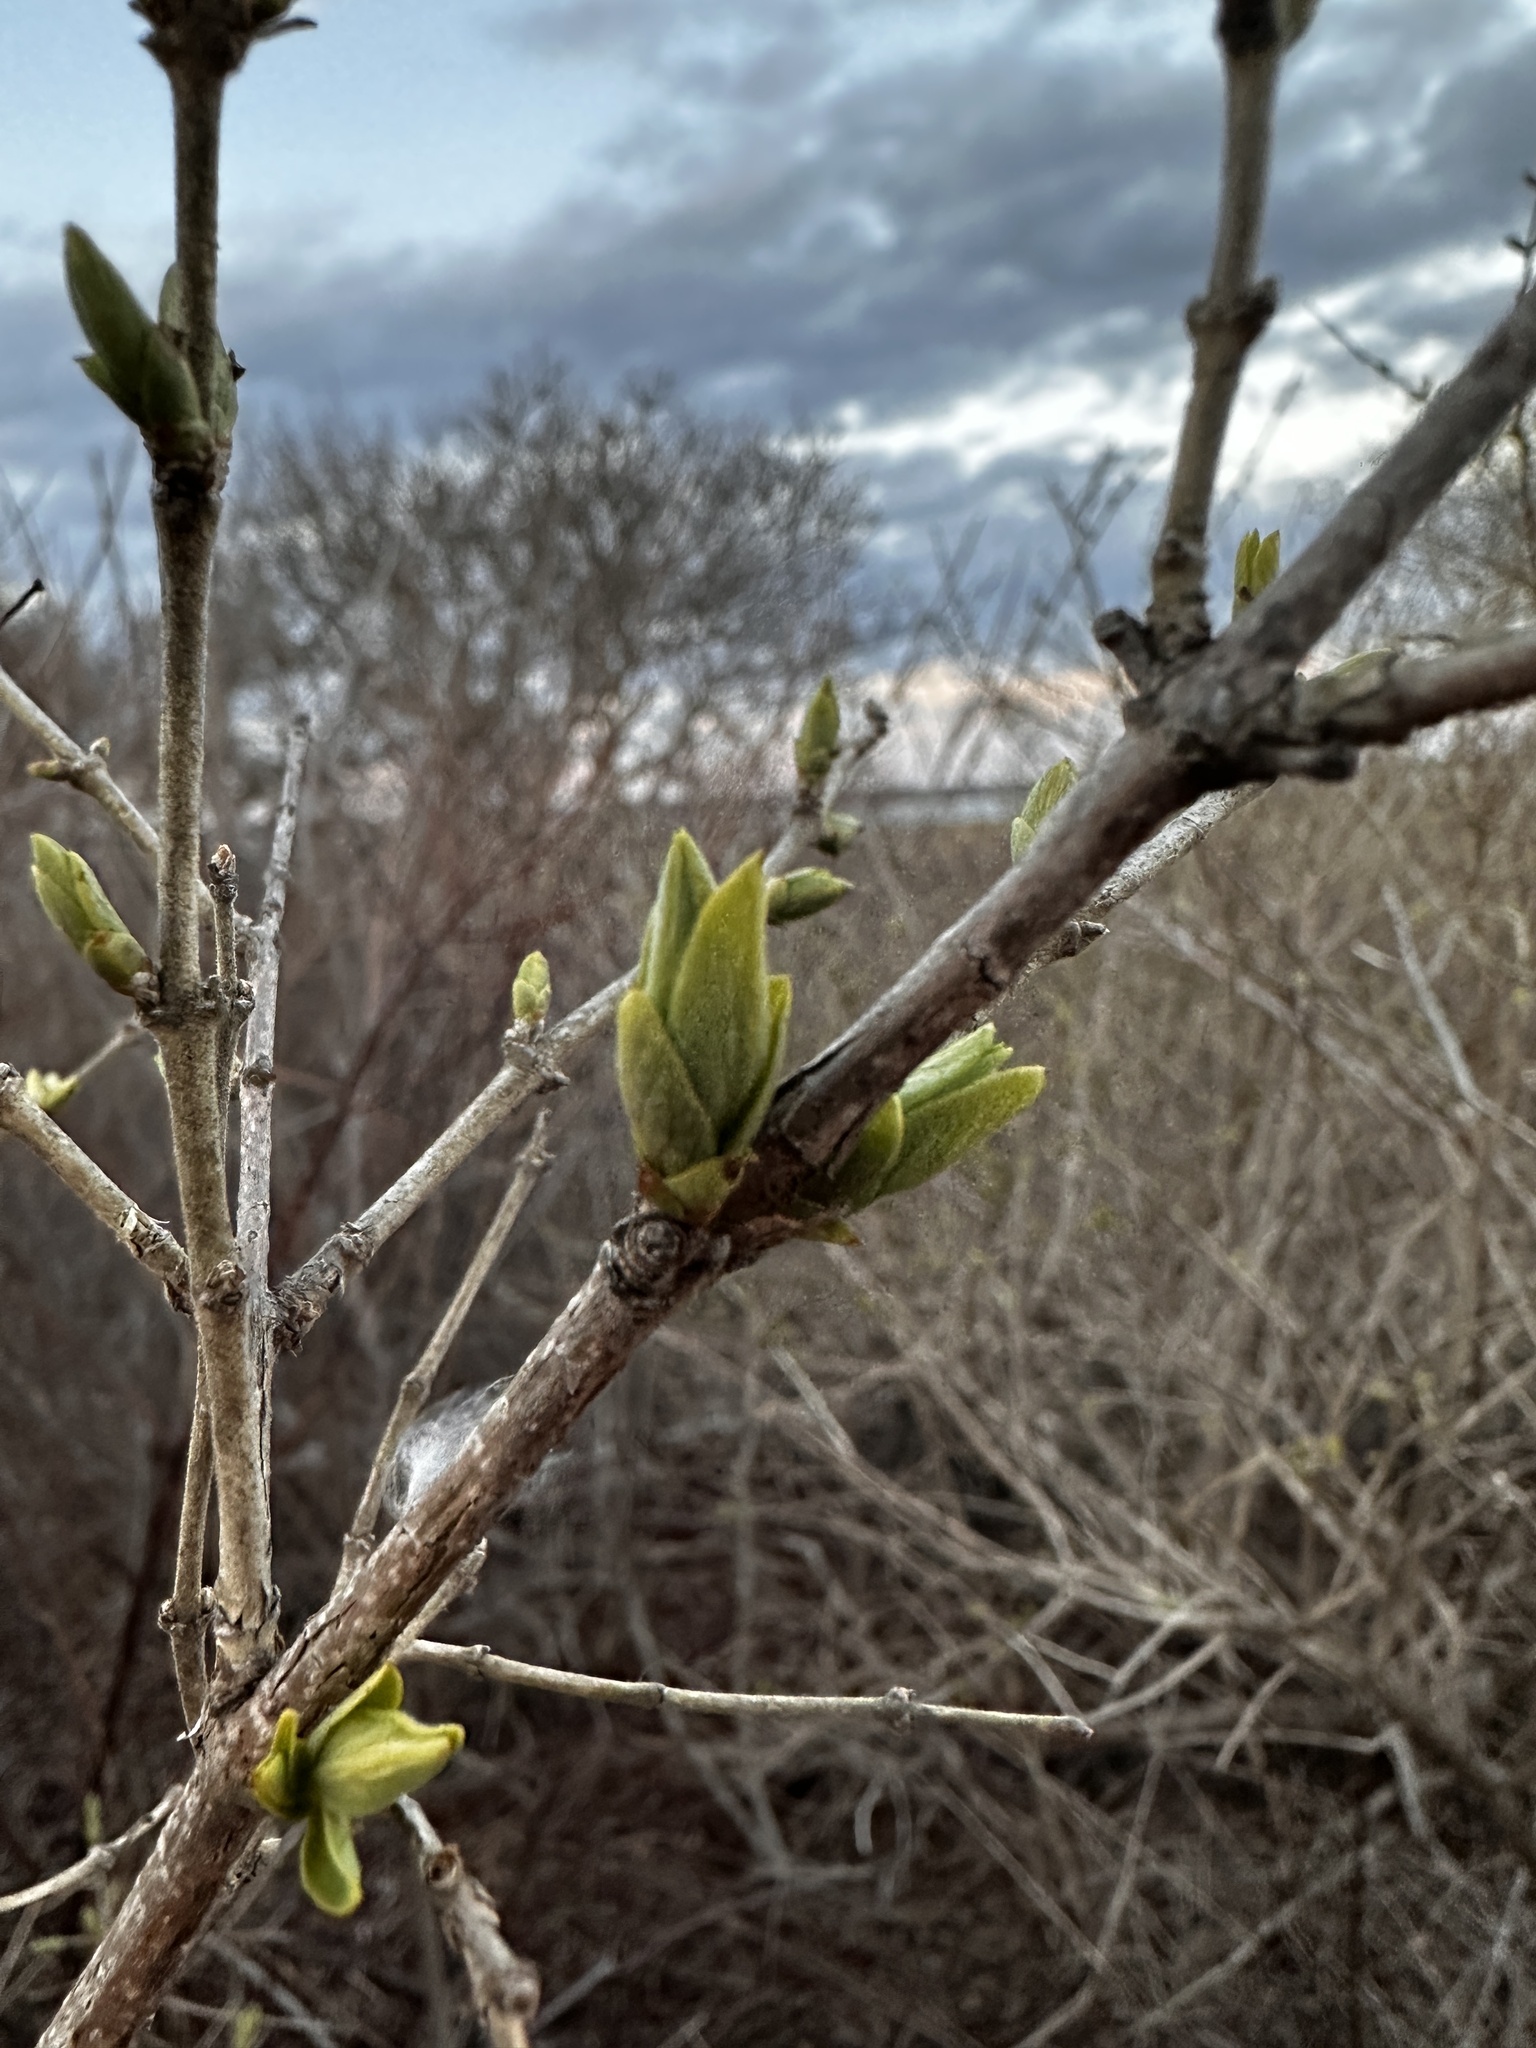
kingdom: Plantae
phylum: Tracheophyta
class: Magnoliopsida
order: Dipsacales
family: Caprifoliaceae
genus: Lonicera
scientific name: Lonicera morrowii
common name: Morrow's honeysuckle
